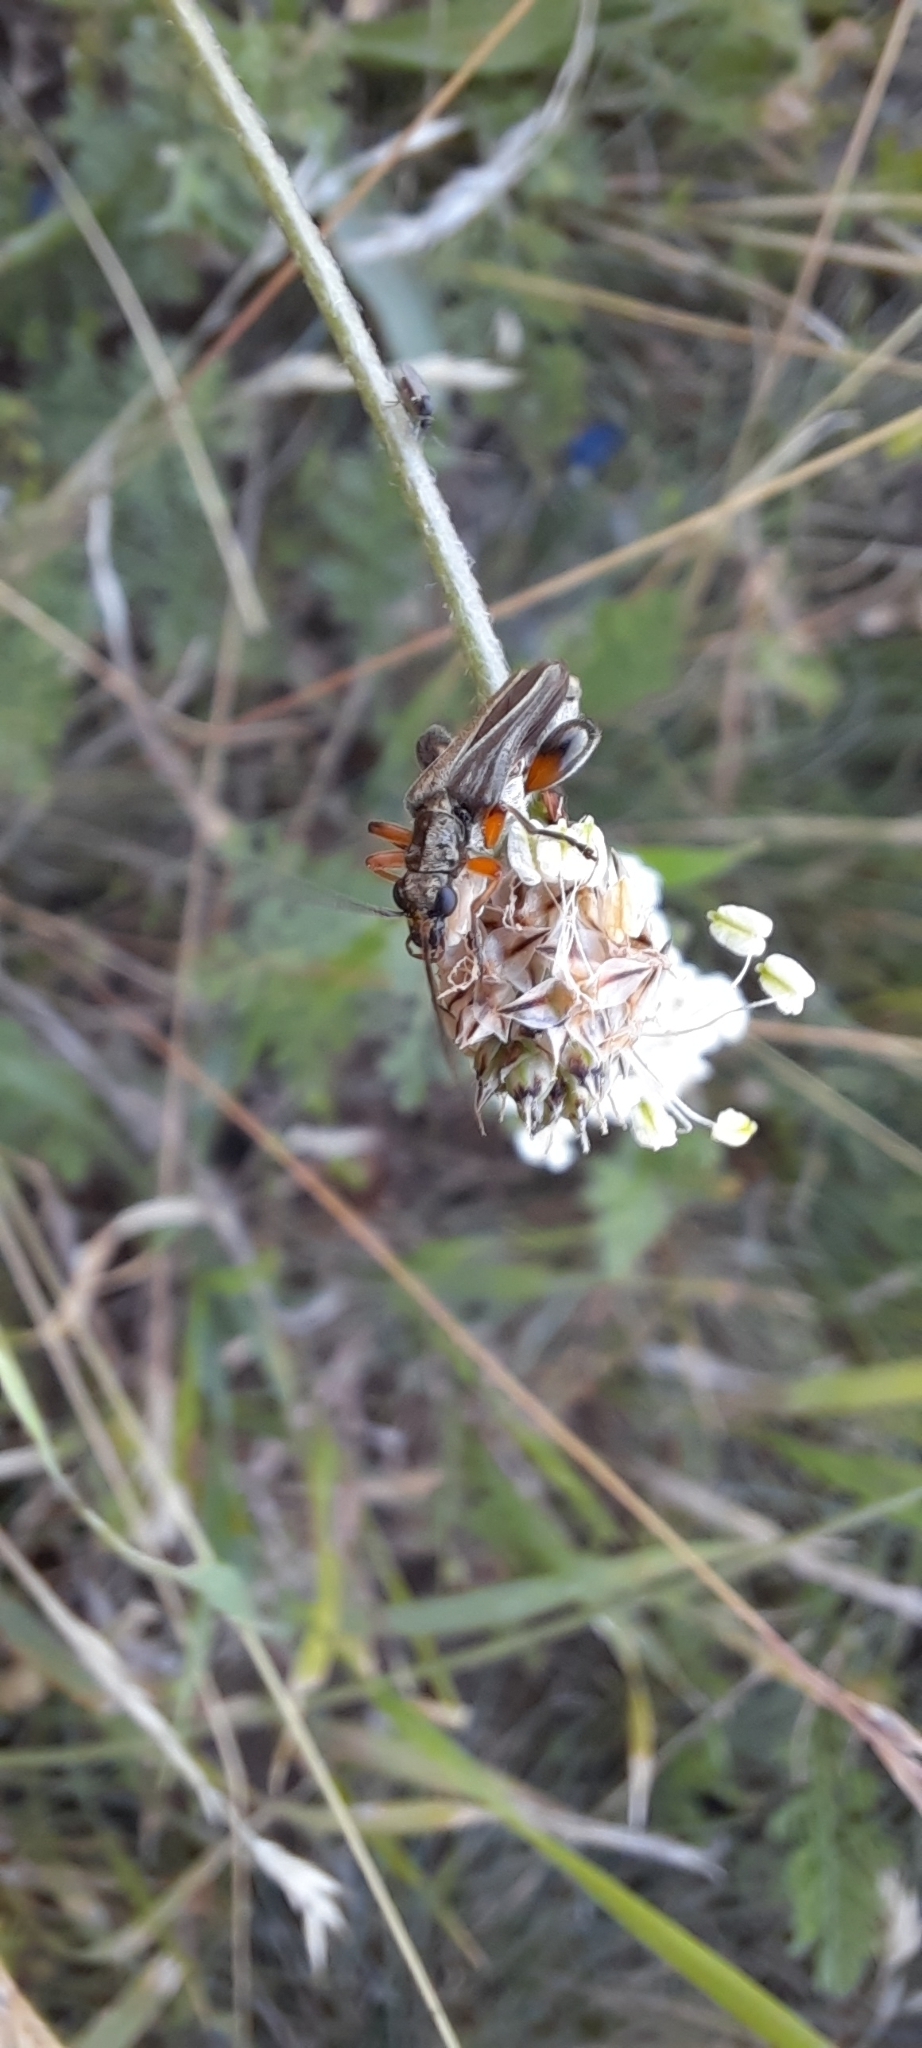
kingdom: Animalia
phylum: Arthropoda
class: Insecta
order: Coleoptera
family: Oedemeridae
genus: Oedemera
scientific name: Oedemera podagrariae
